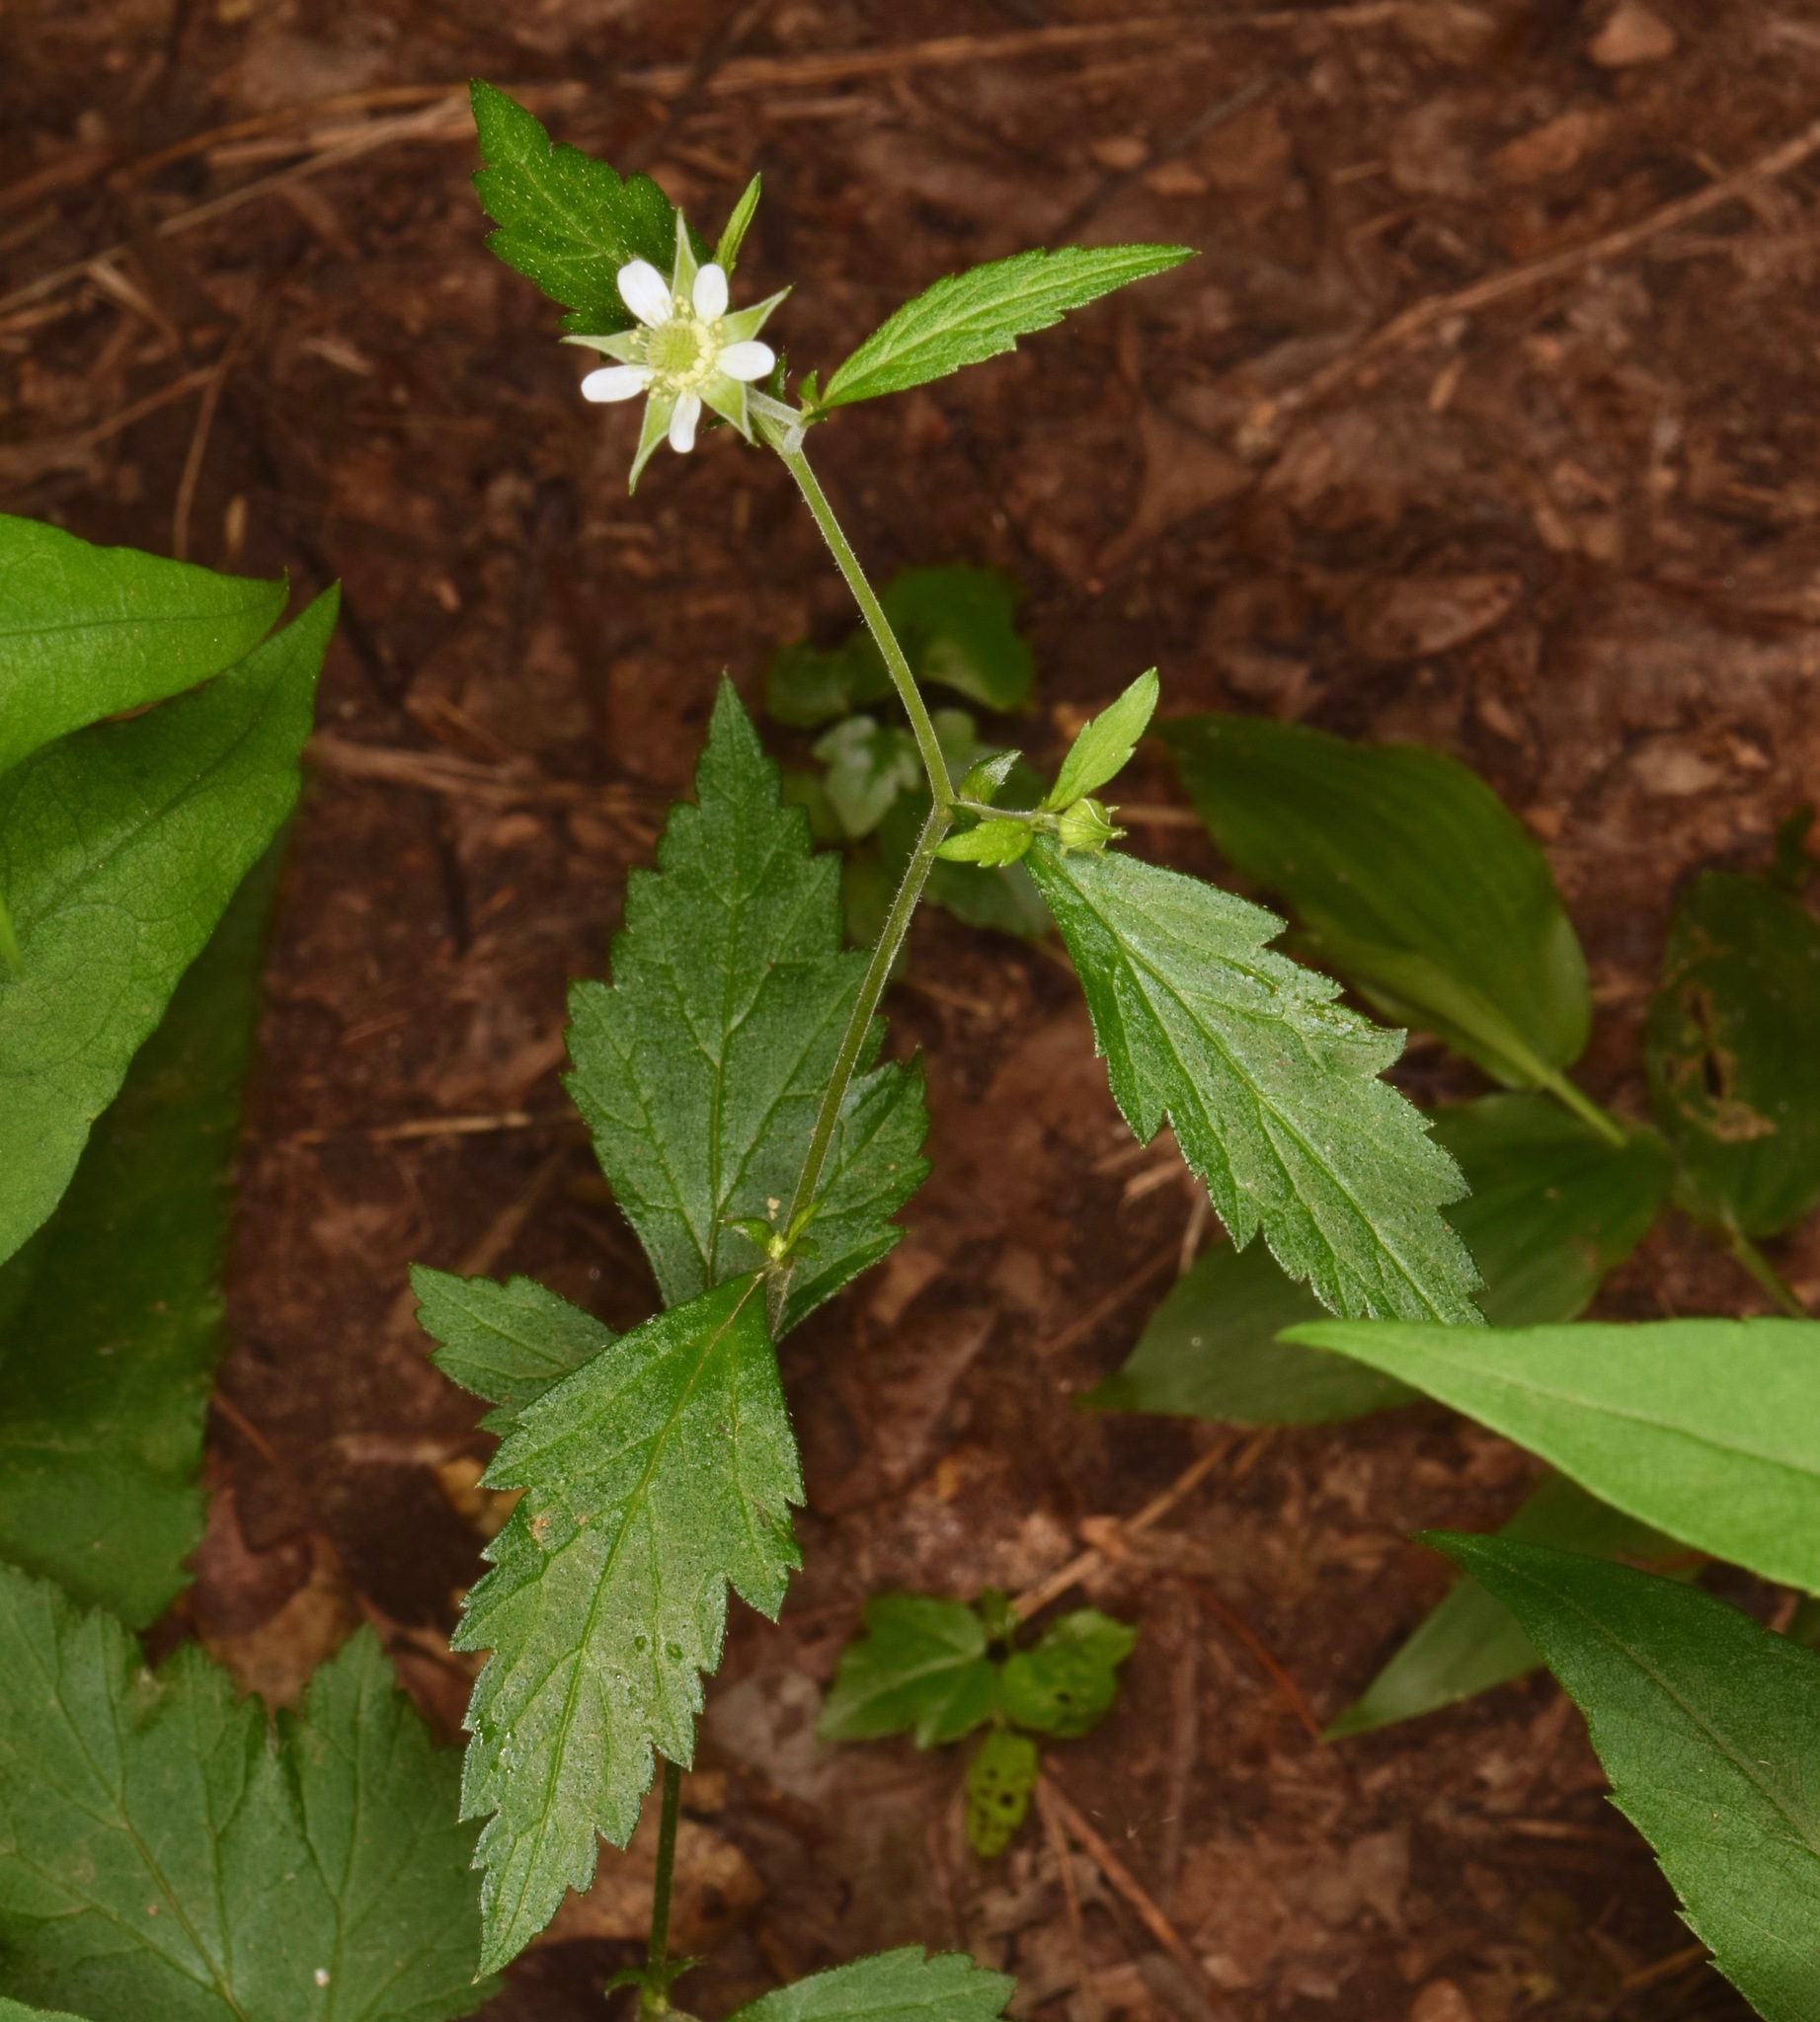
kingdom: Plantae
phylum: Tracheophyta
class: Magnoliopsida
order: Rosales
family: Rosaceae
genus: Geum
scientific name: Geum canadense
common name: White avens
